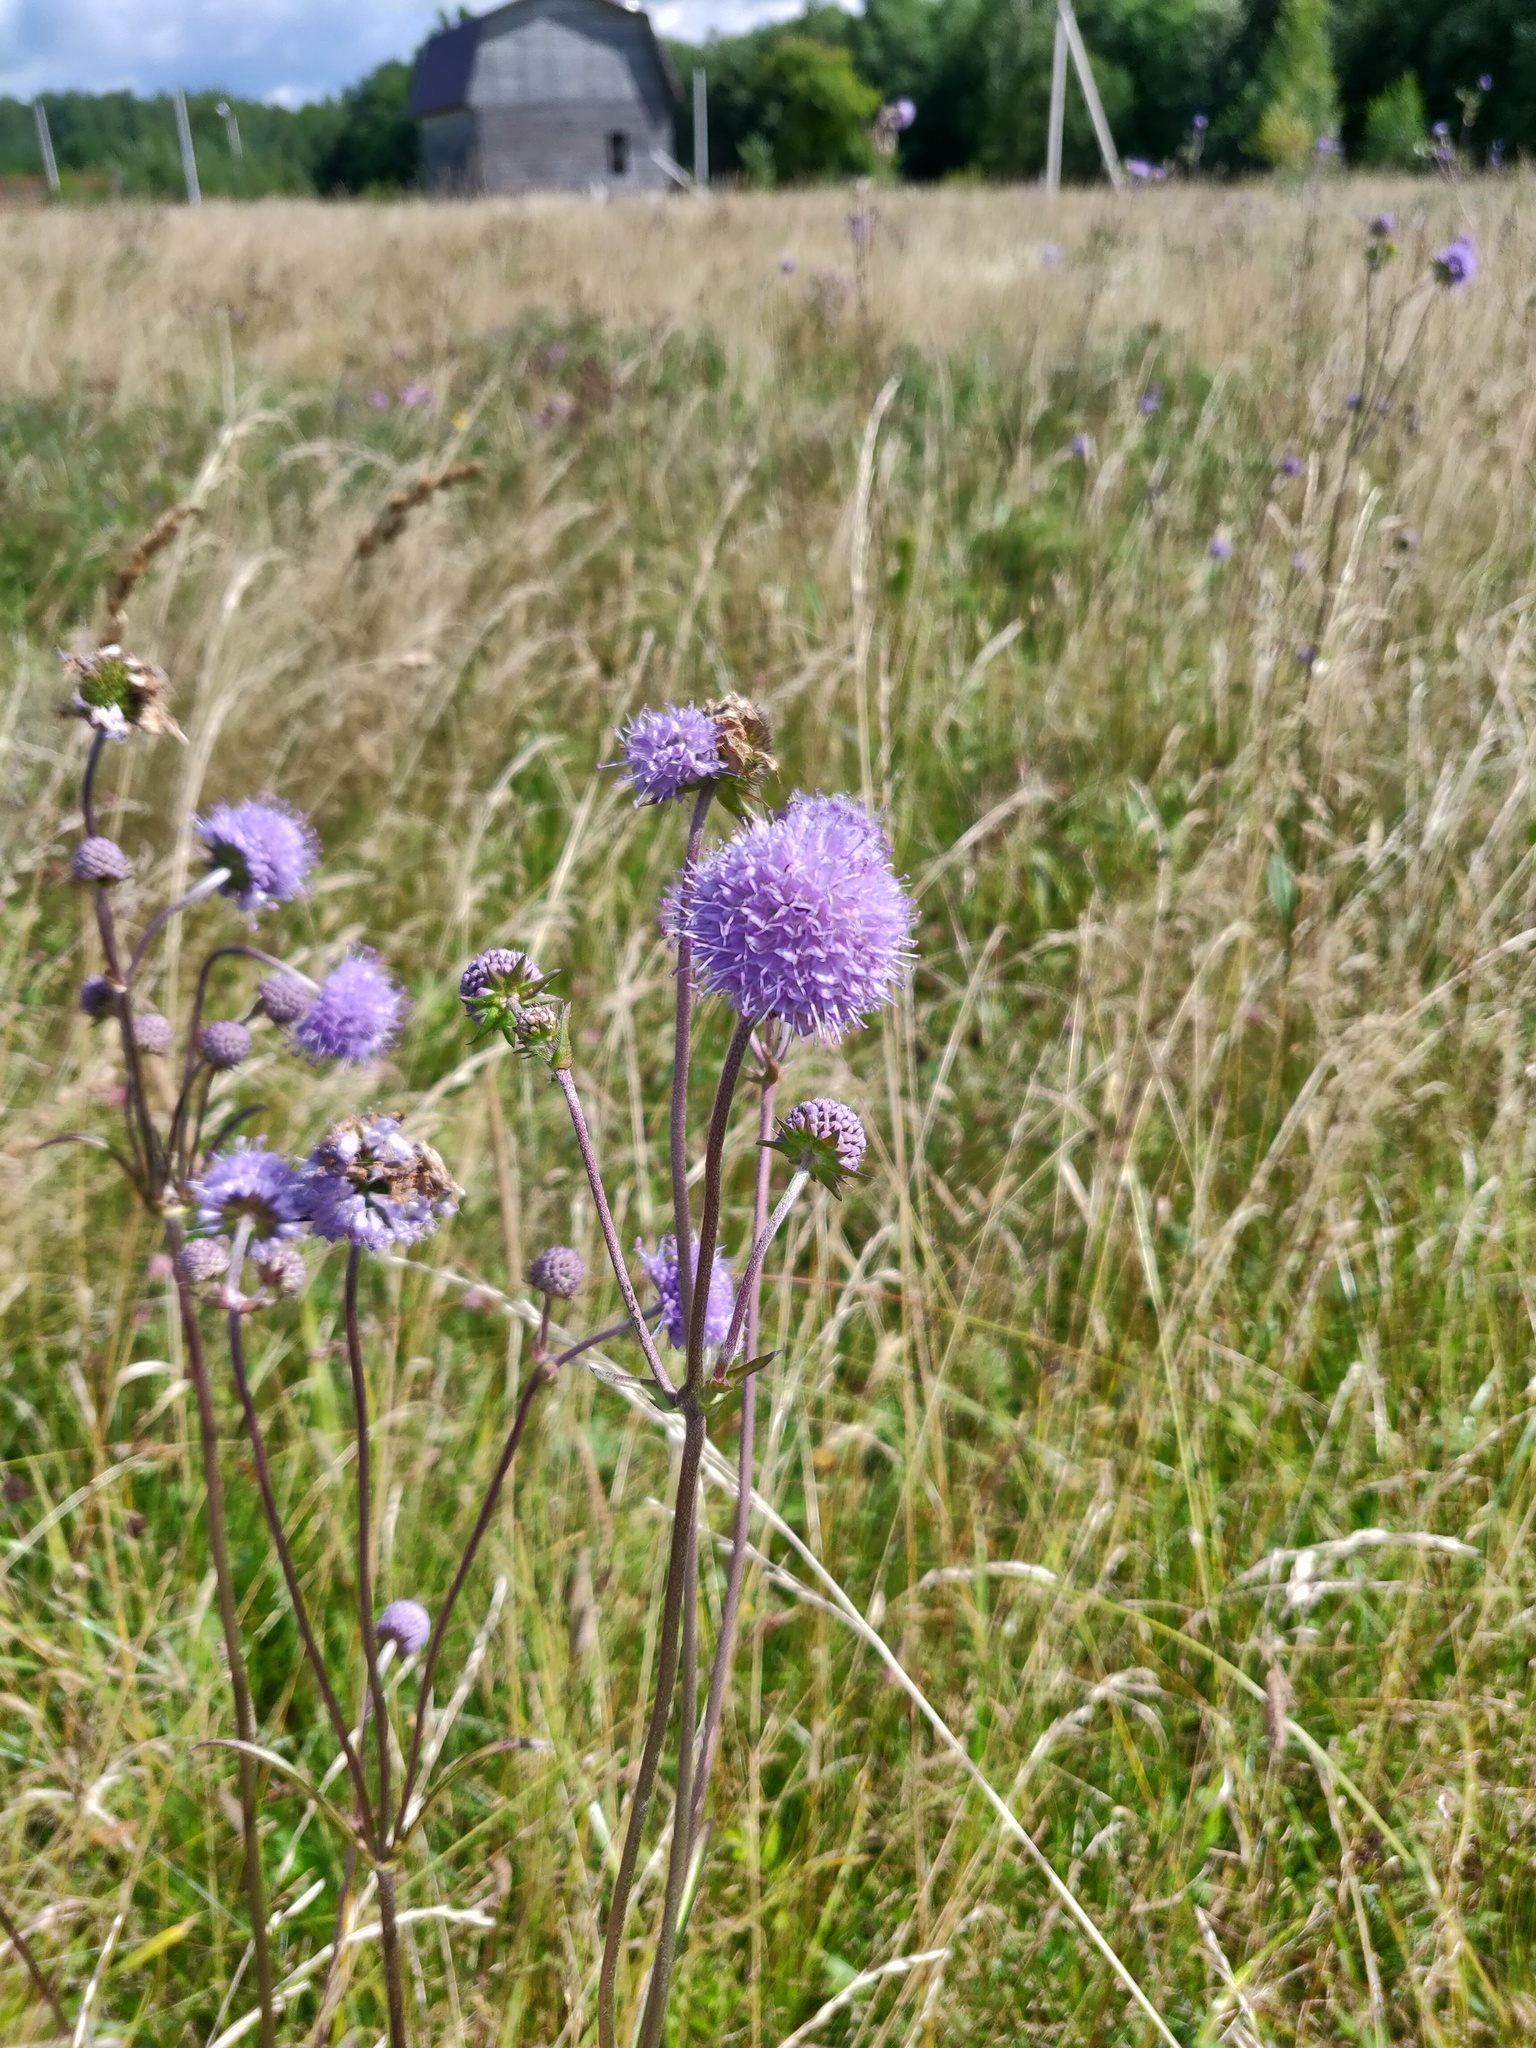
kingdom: Plantae
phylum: Tracheophyta
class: Magnoliopsida
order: Dipsacales
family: Caprifoliaceae
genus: Succisa
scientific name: Succisa pratensis
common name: Devil's-bit
